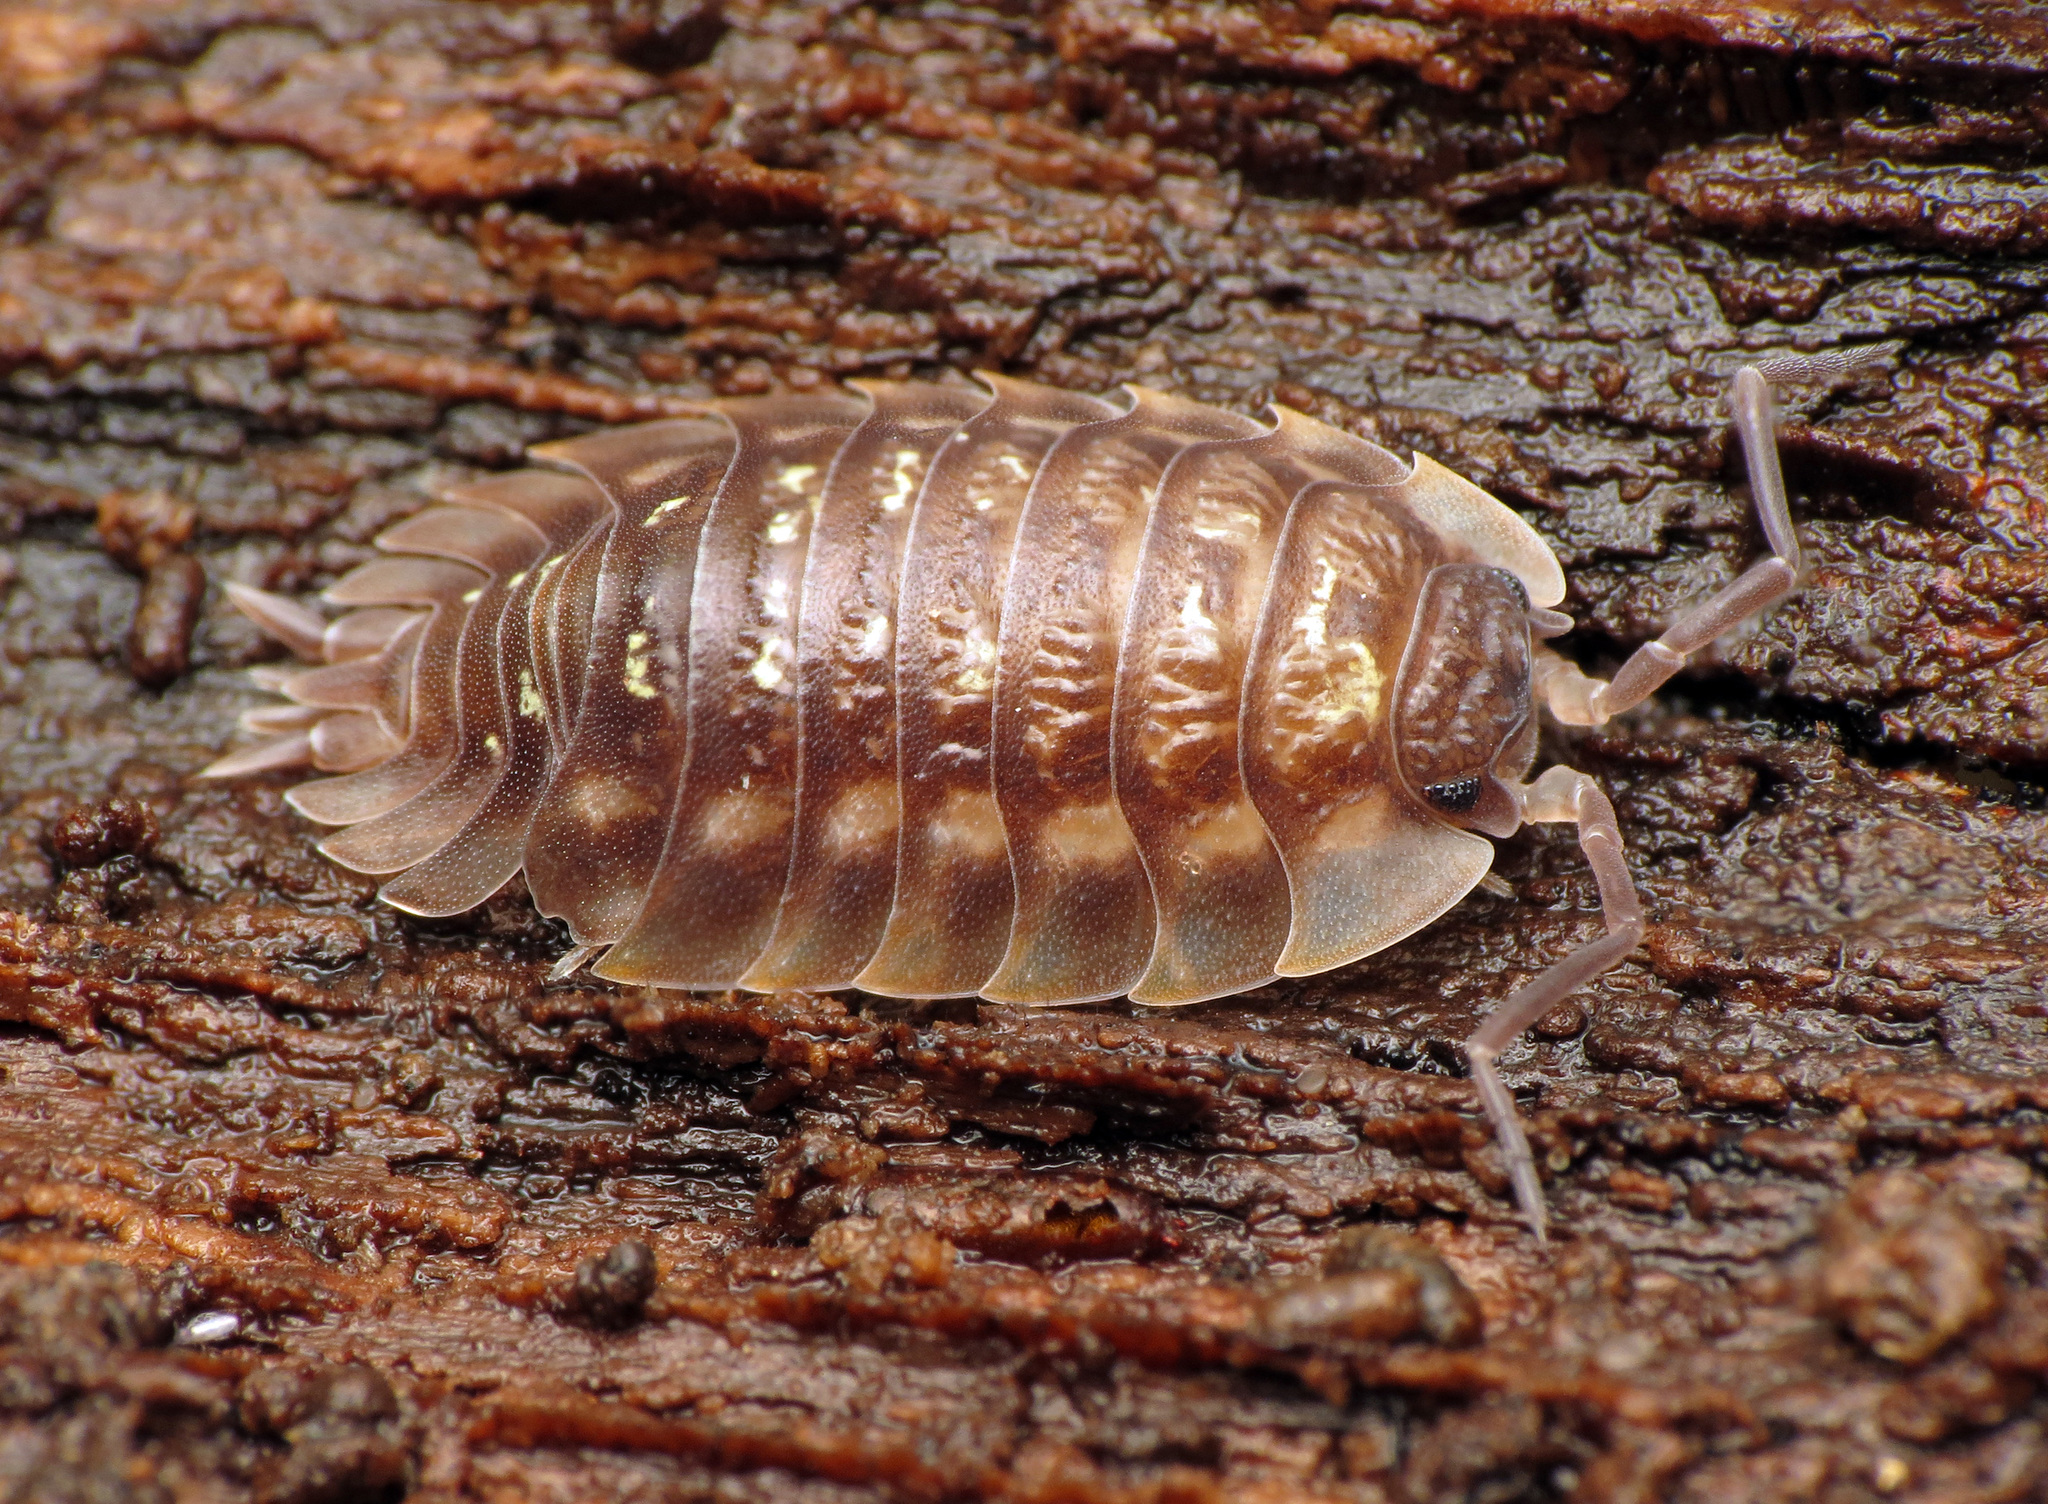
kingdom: Animalia
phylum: Arthropoda
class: Malacostraca
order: Isopoda
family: Oniscidae
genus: Oniscus
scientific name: Oniscus asellus
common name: Common shiny woodlouse
